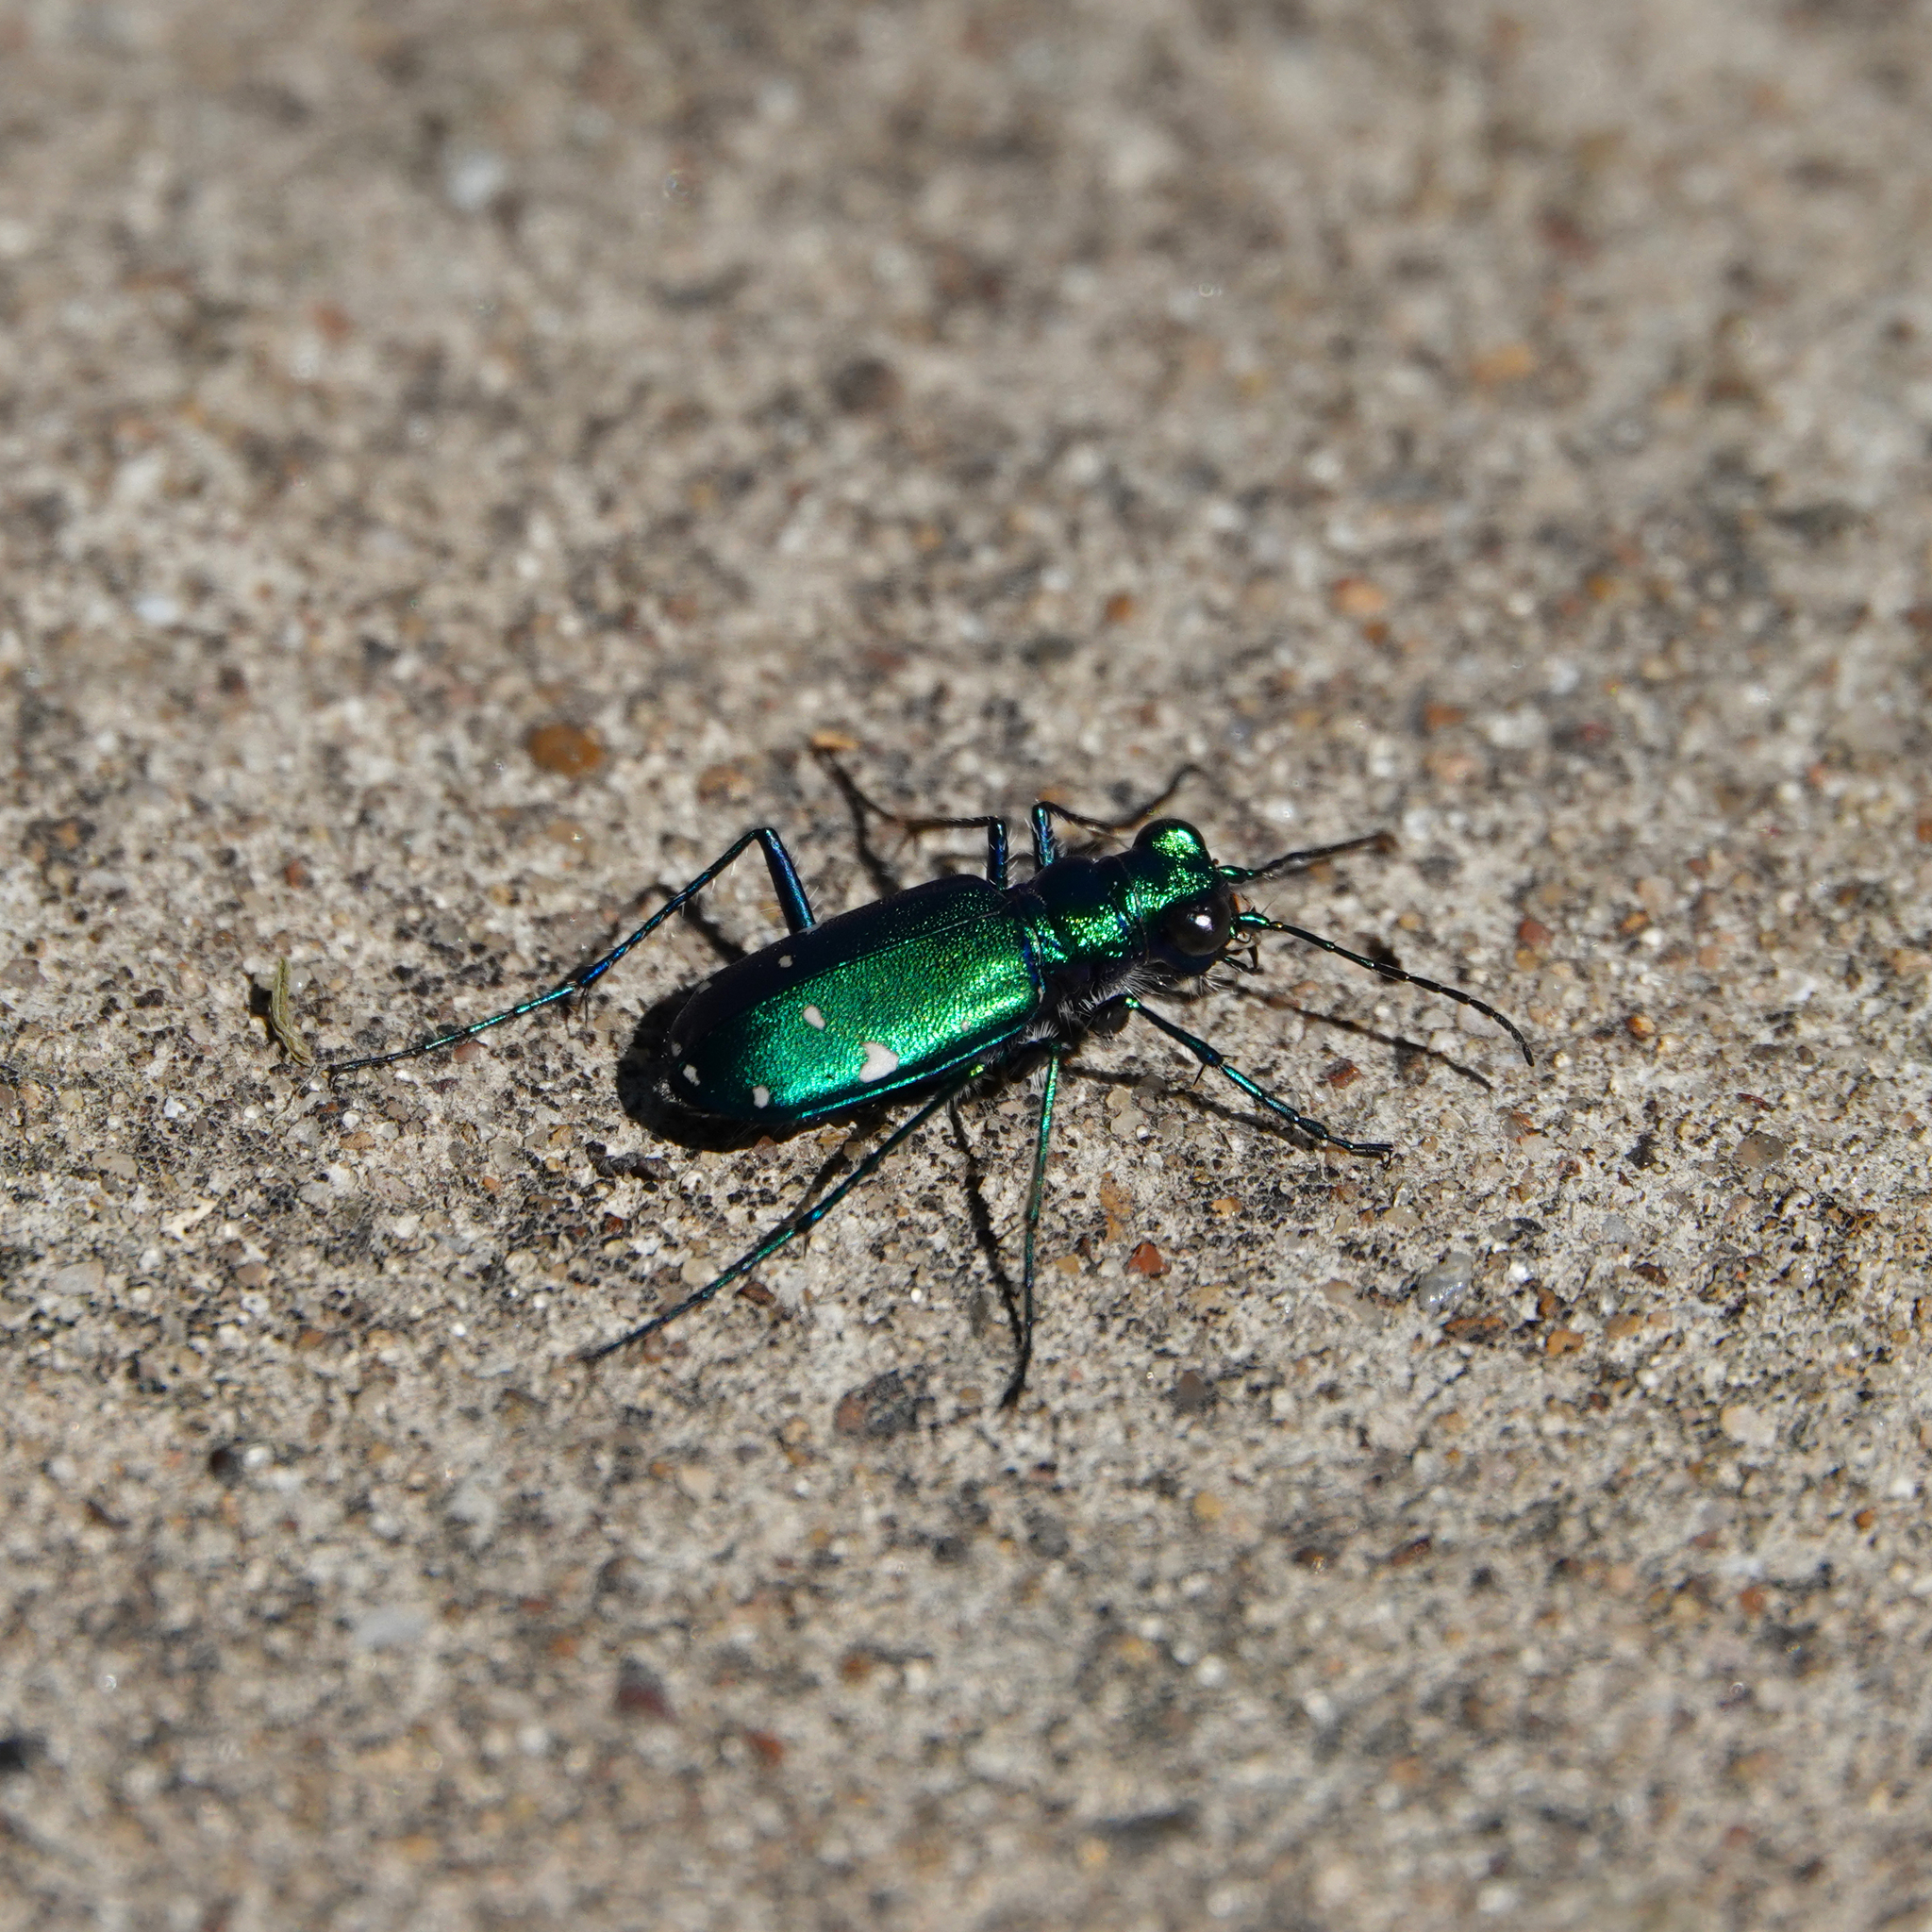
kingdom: Animalia
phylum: Arthropoda
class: Insecta
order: Coleoptera
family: Carabidae
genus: Cicindela
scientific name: Cicindela sexguttata
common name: Six-spotted tiger beetle
